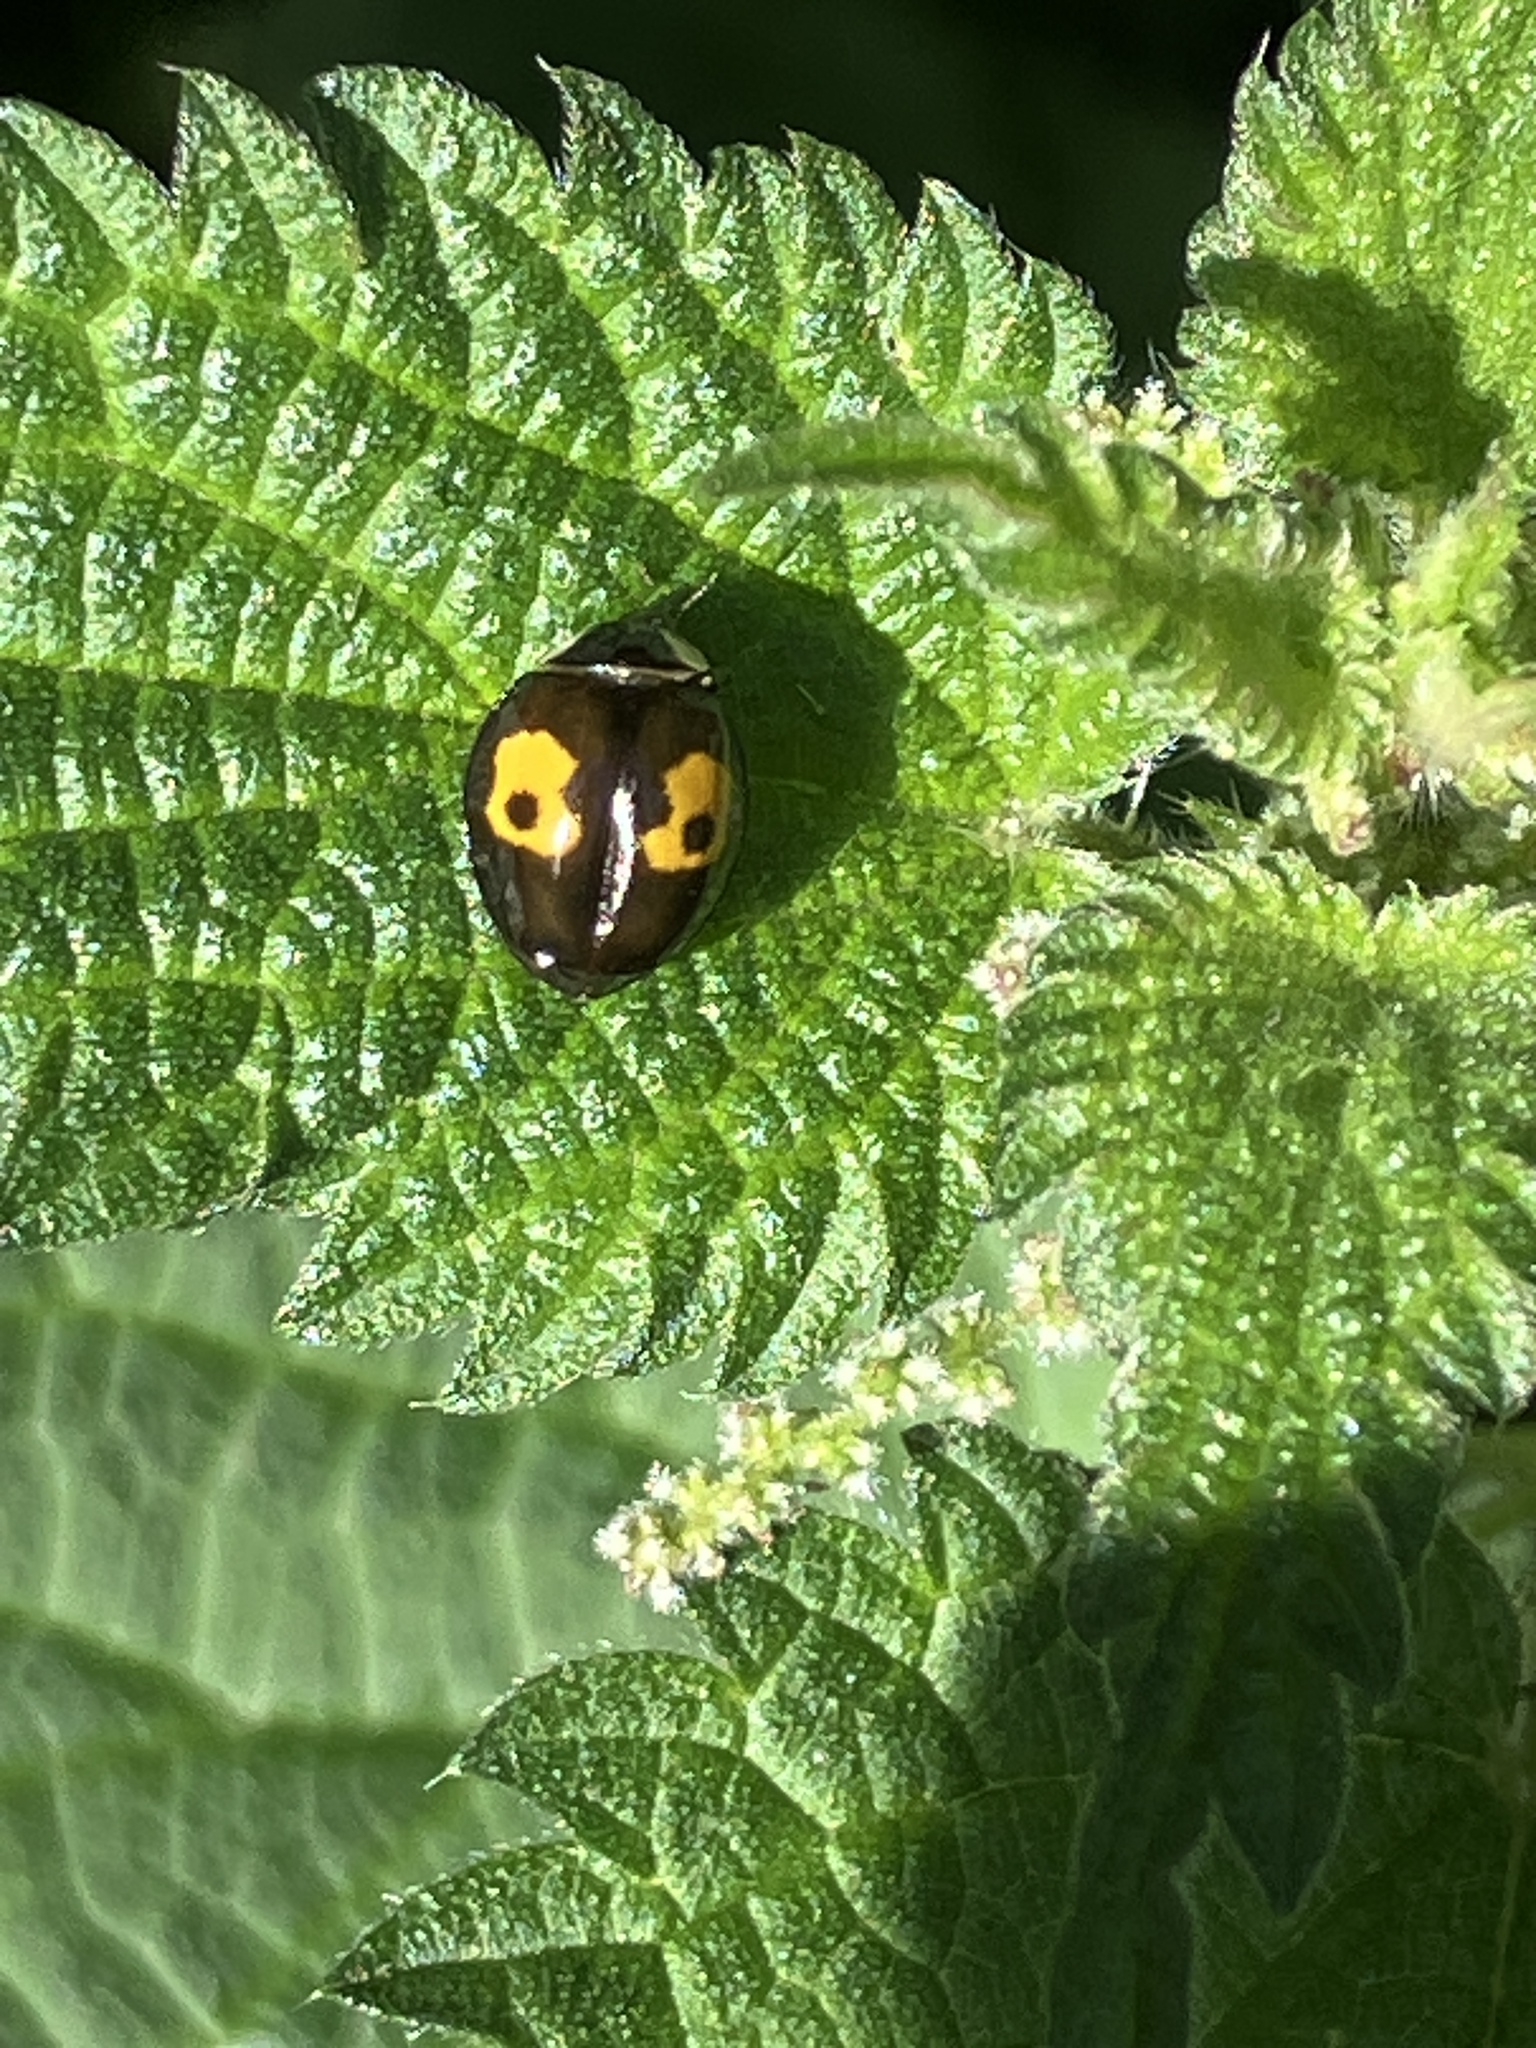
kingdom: Animalia
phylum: Arthropoda
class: Insecta
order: Coleoptera
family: Coccinellidae
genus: Harmonia
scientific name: Harmonia axyridis
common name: Harlequin ladybird
